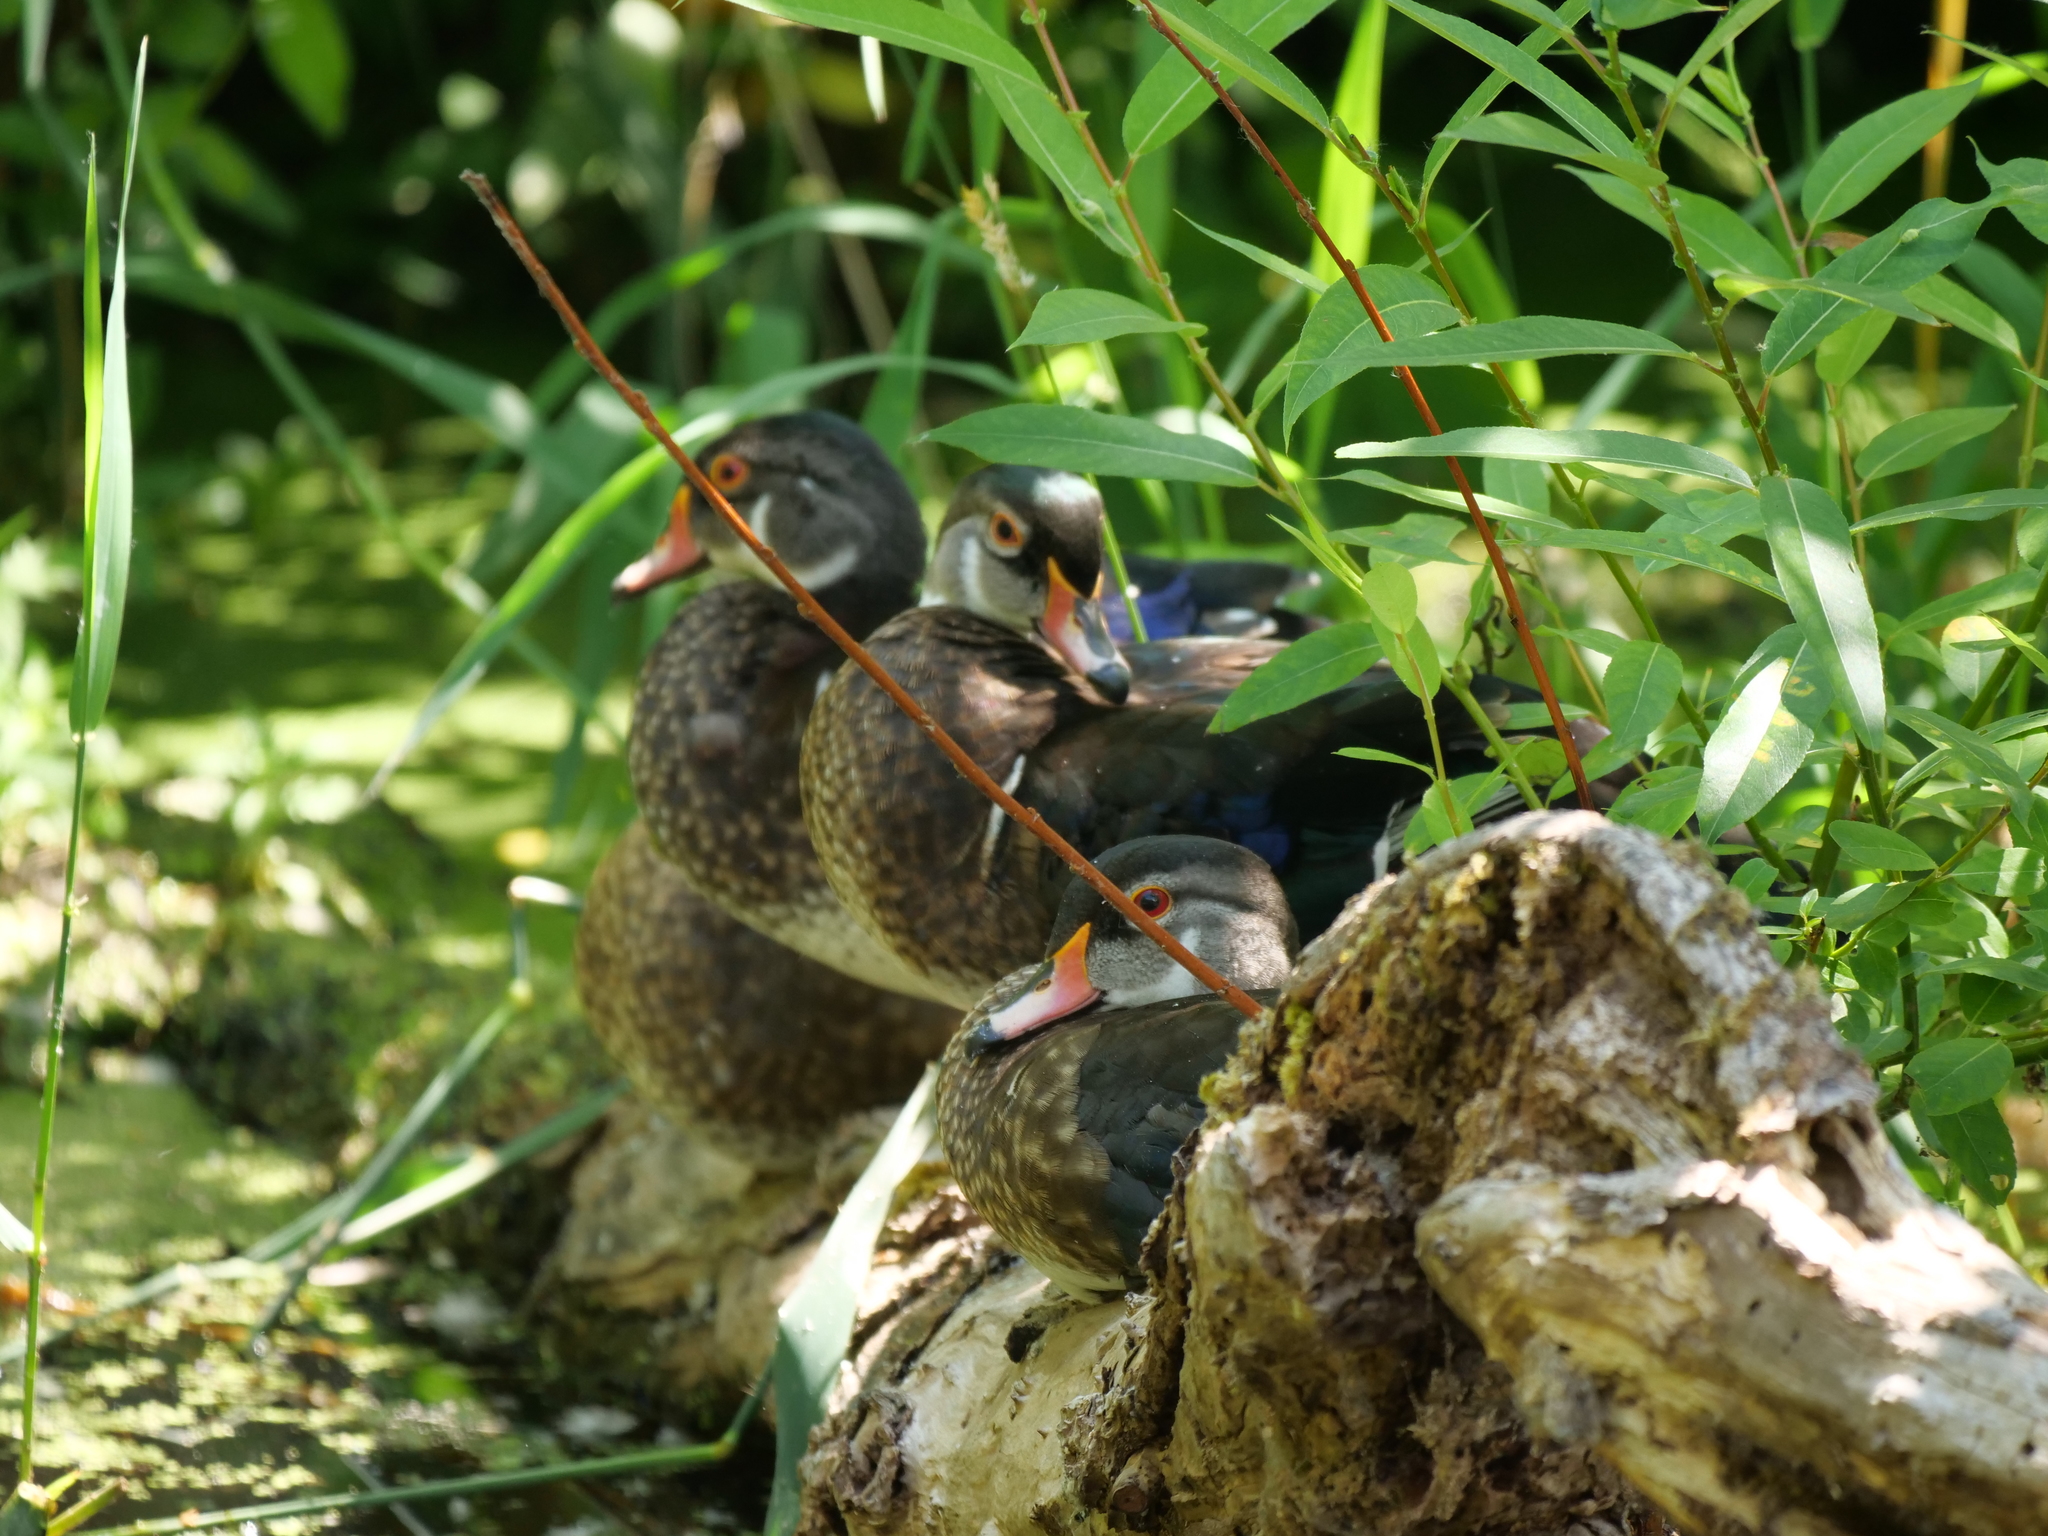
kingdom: Animalia
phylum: Chordata
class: Aves
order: Anseriformes
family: Anatidae
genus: Aix
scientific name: Aix sponsa
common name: Wood duck
